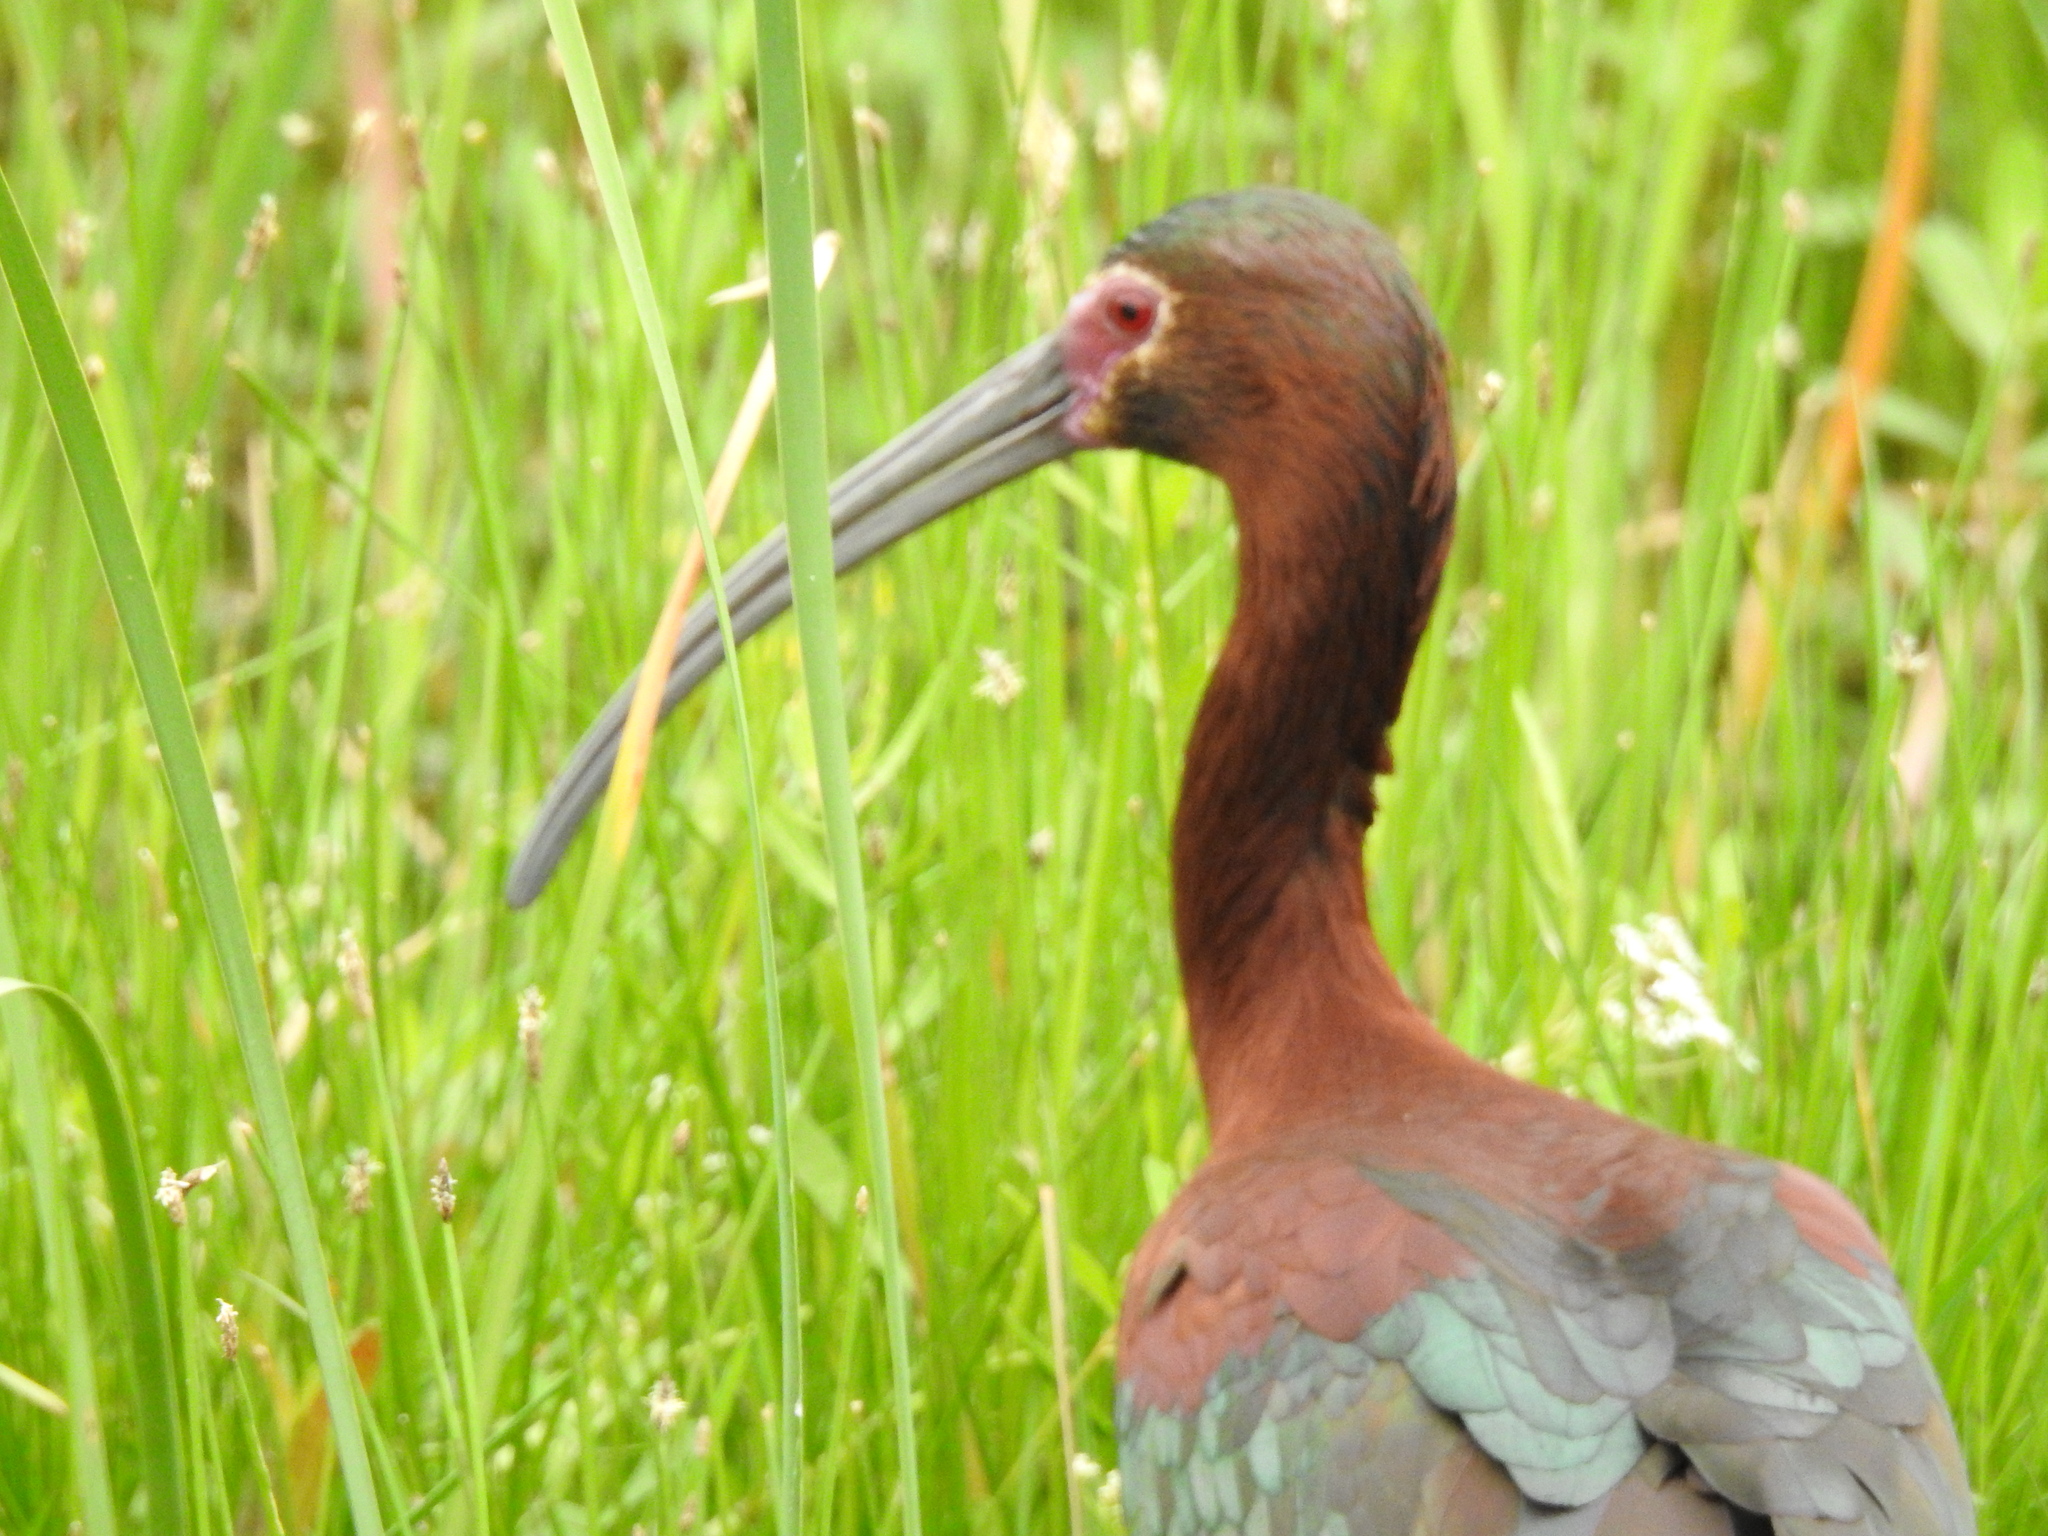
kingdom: Animalia
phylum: Chordata
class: Aves
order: Pelecaniformes
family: Threskiornithidae
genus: Plegadis
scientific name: Plegadis chihi
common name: White-faced ibis
